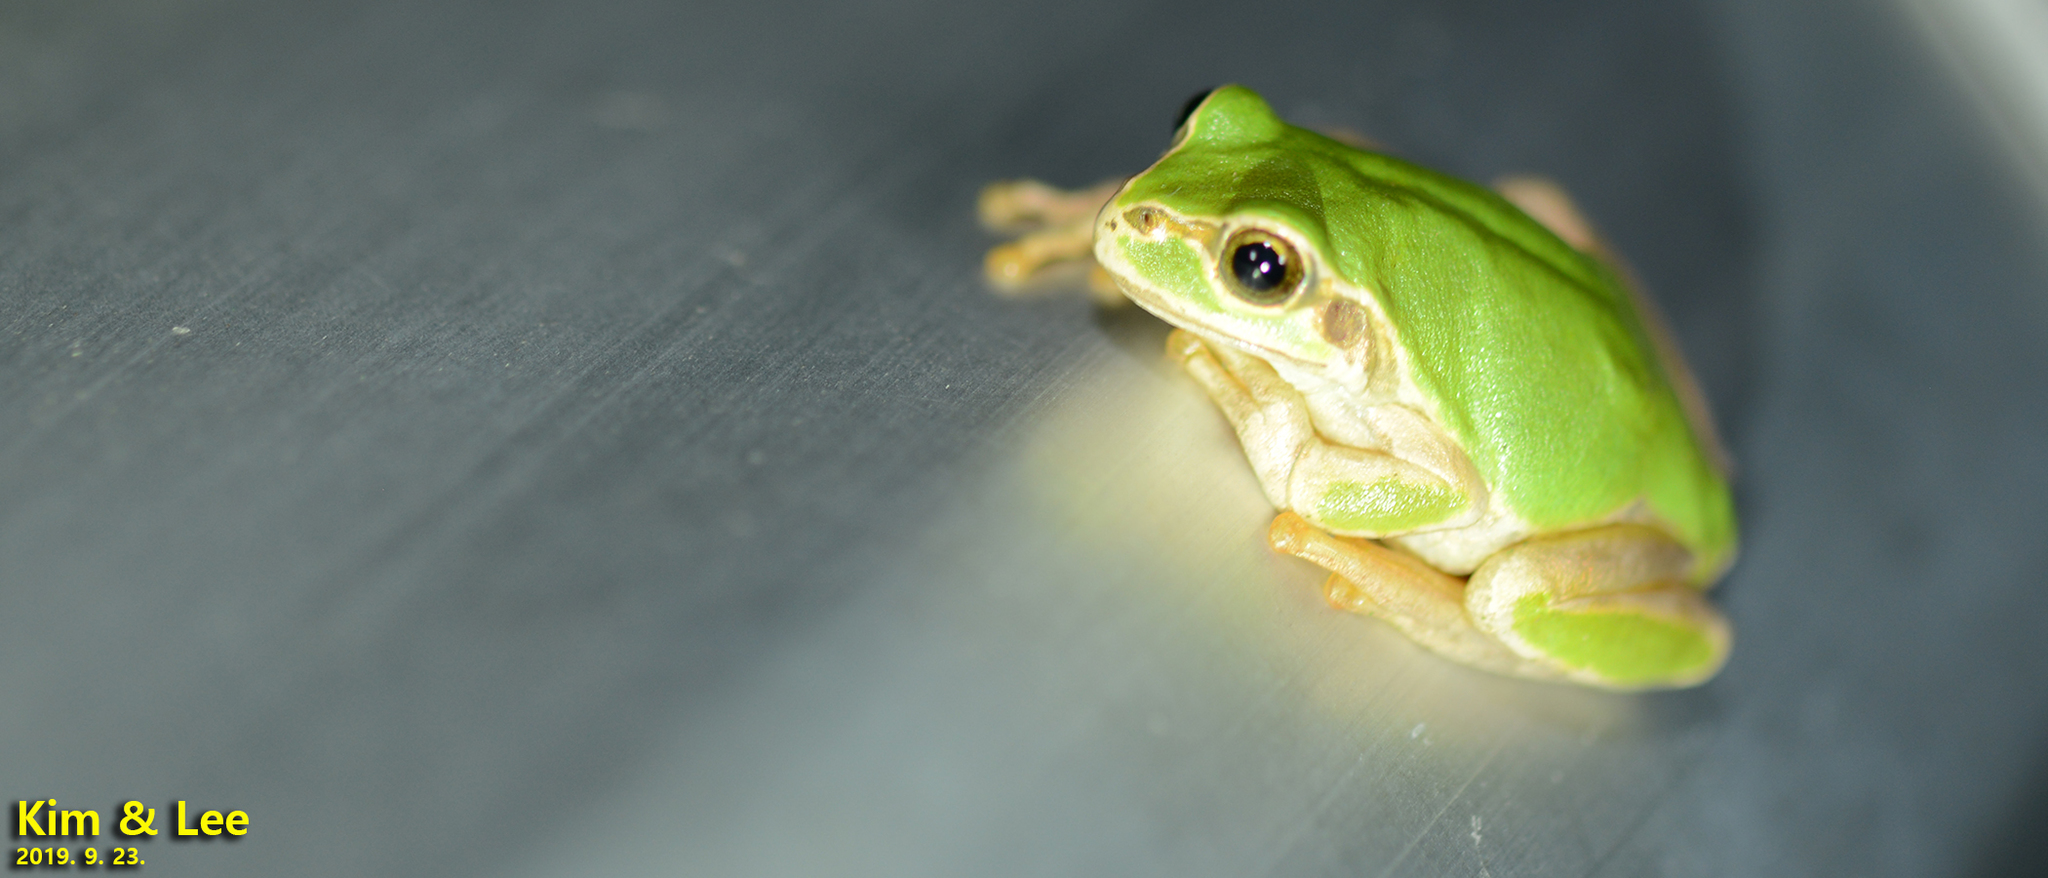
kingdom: Animalia
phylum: Chordata
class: Amphibia
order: Anura
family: Hylidae
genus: Dryophytes
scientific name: Dryophytes japonicus
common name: Japanese treefrog
